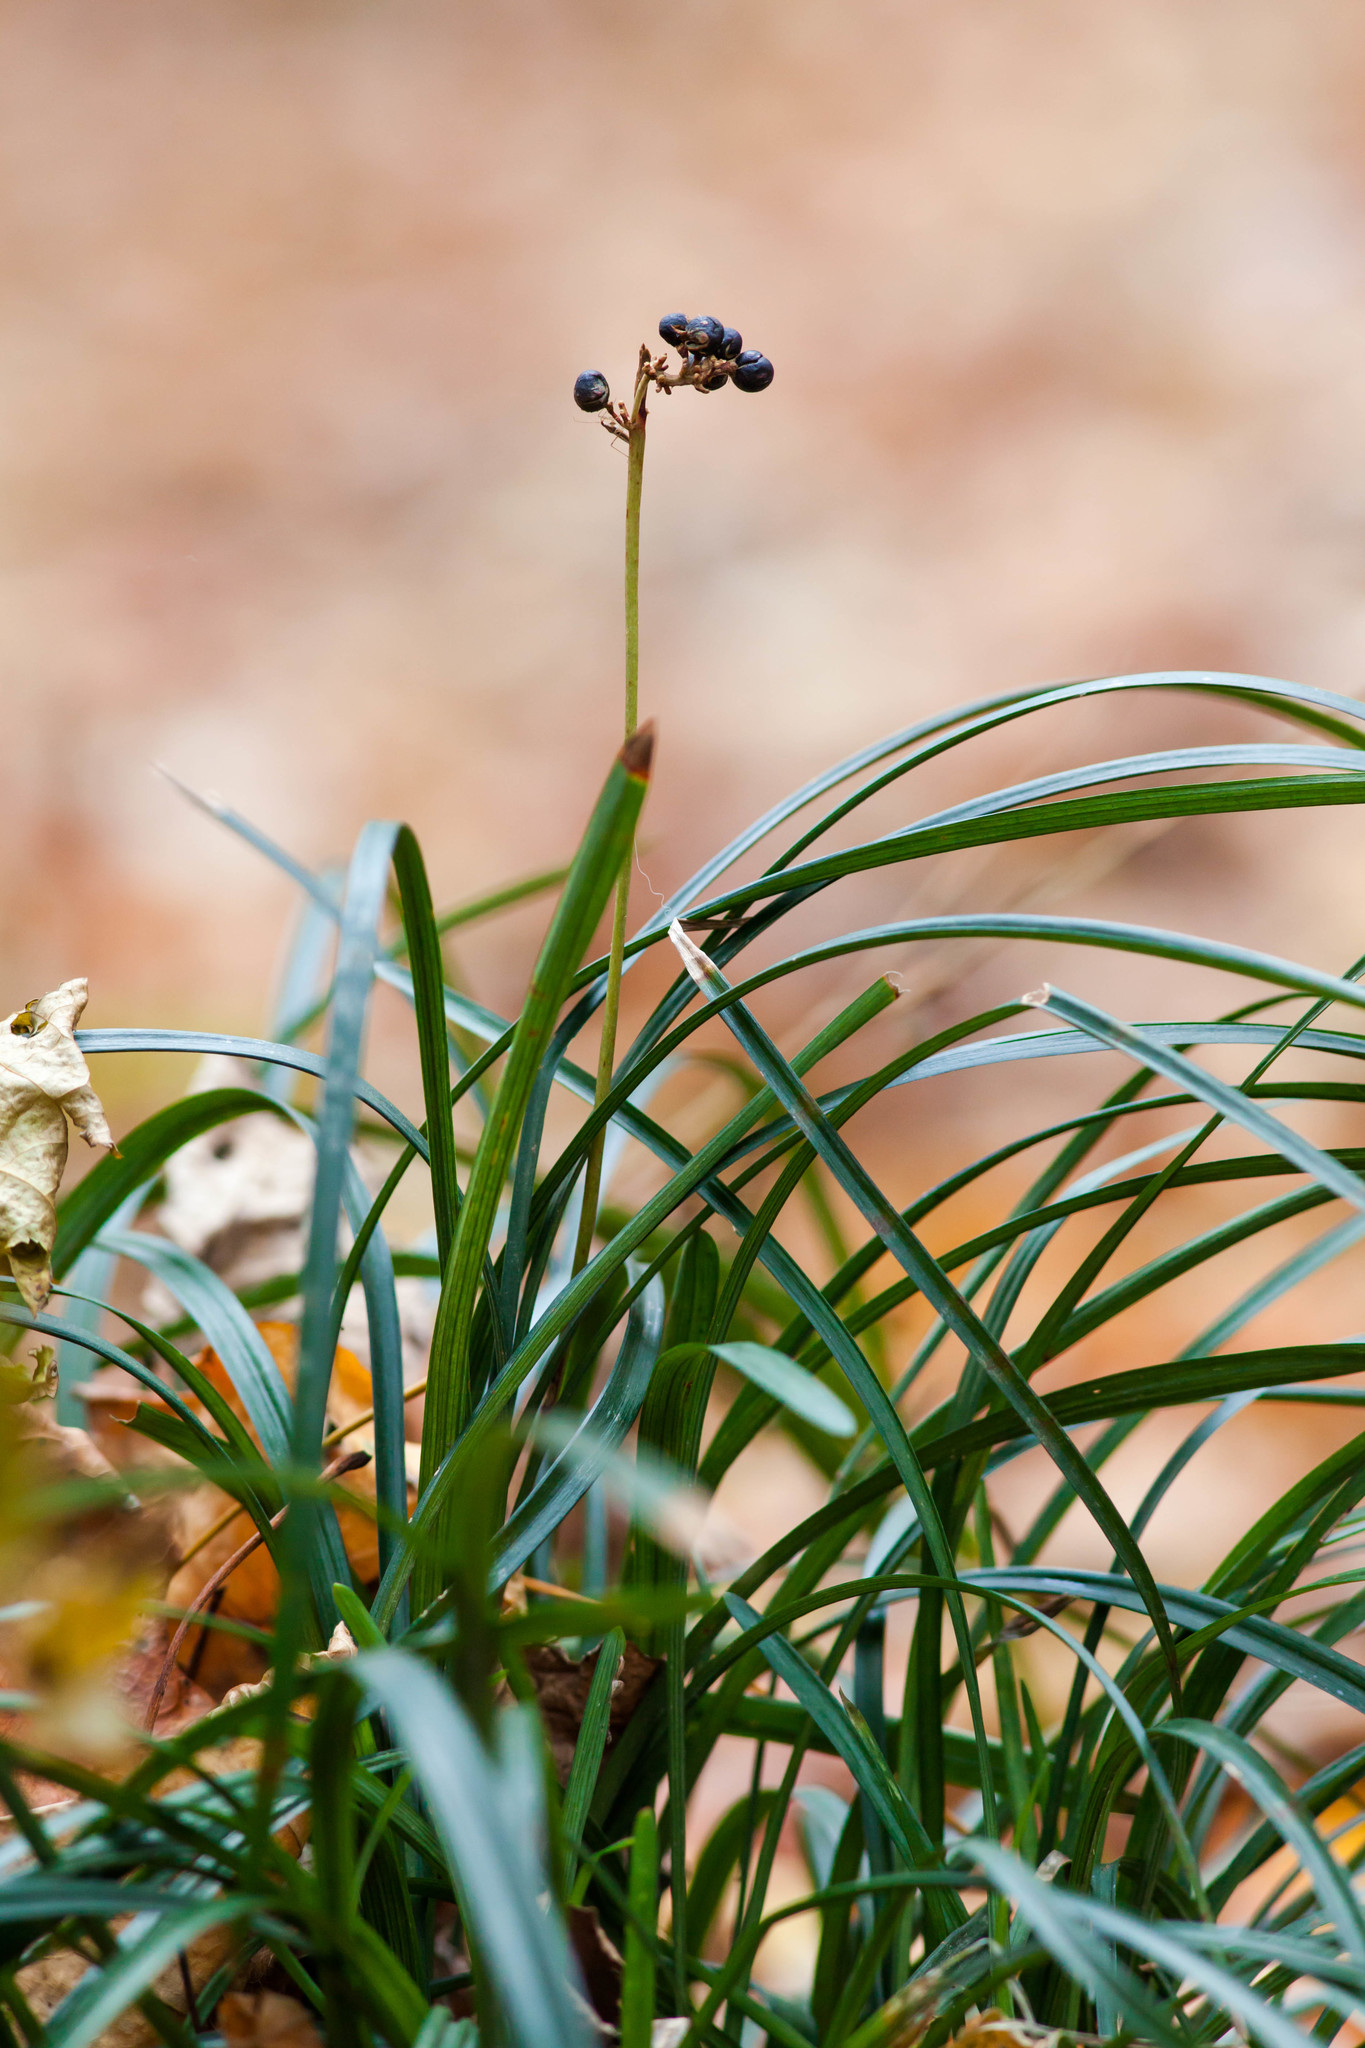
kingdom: Plantae
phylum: Tracheophyta
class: Liliopsida
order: Asparagales
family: Asparagaceae
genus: Liriope
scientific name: Liriope muscari
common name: Big blue lilyturf
